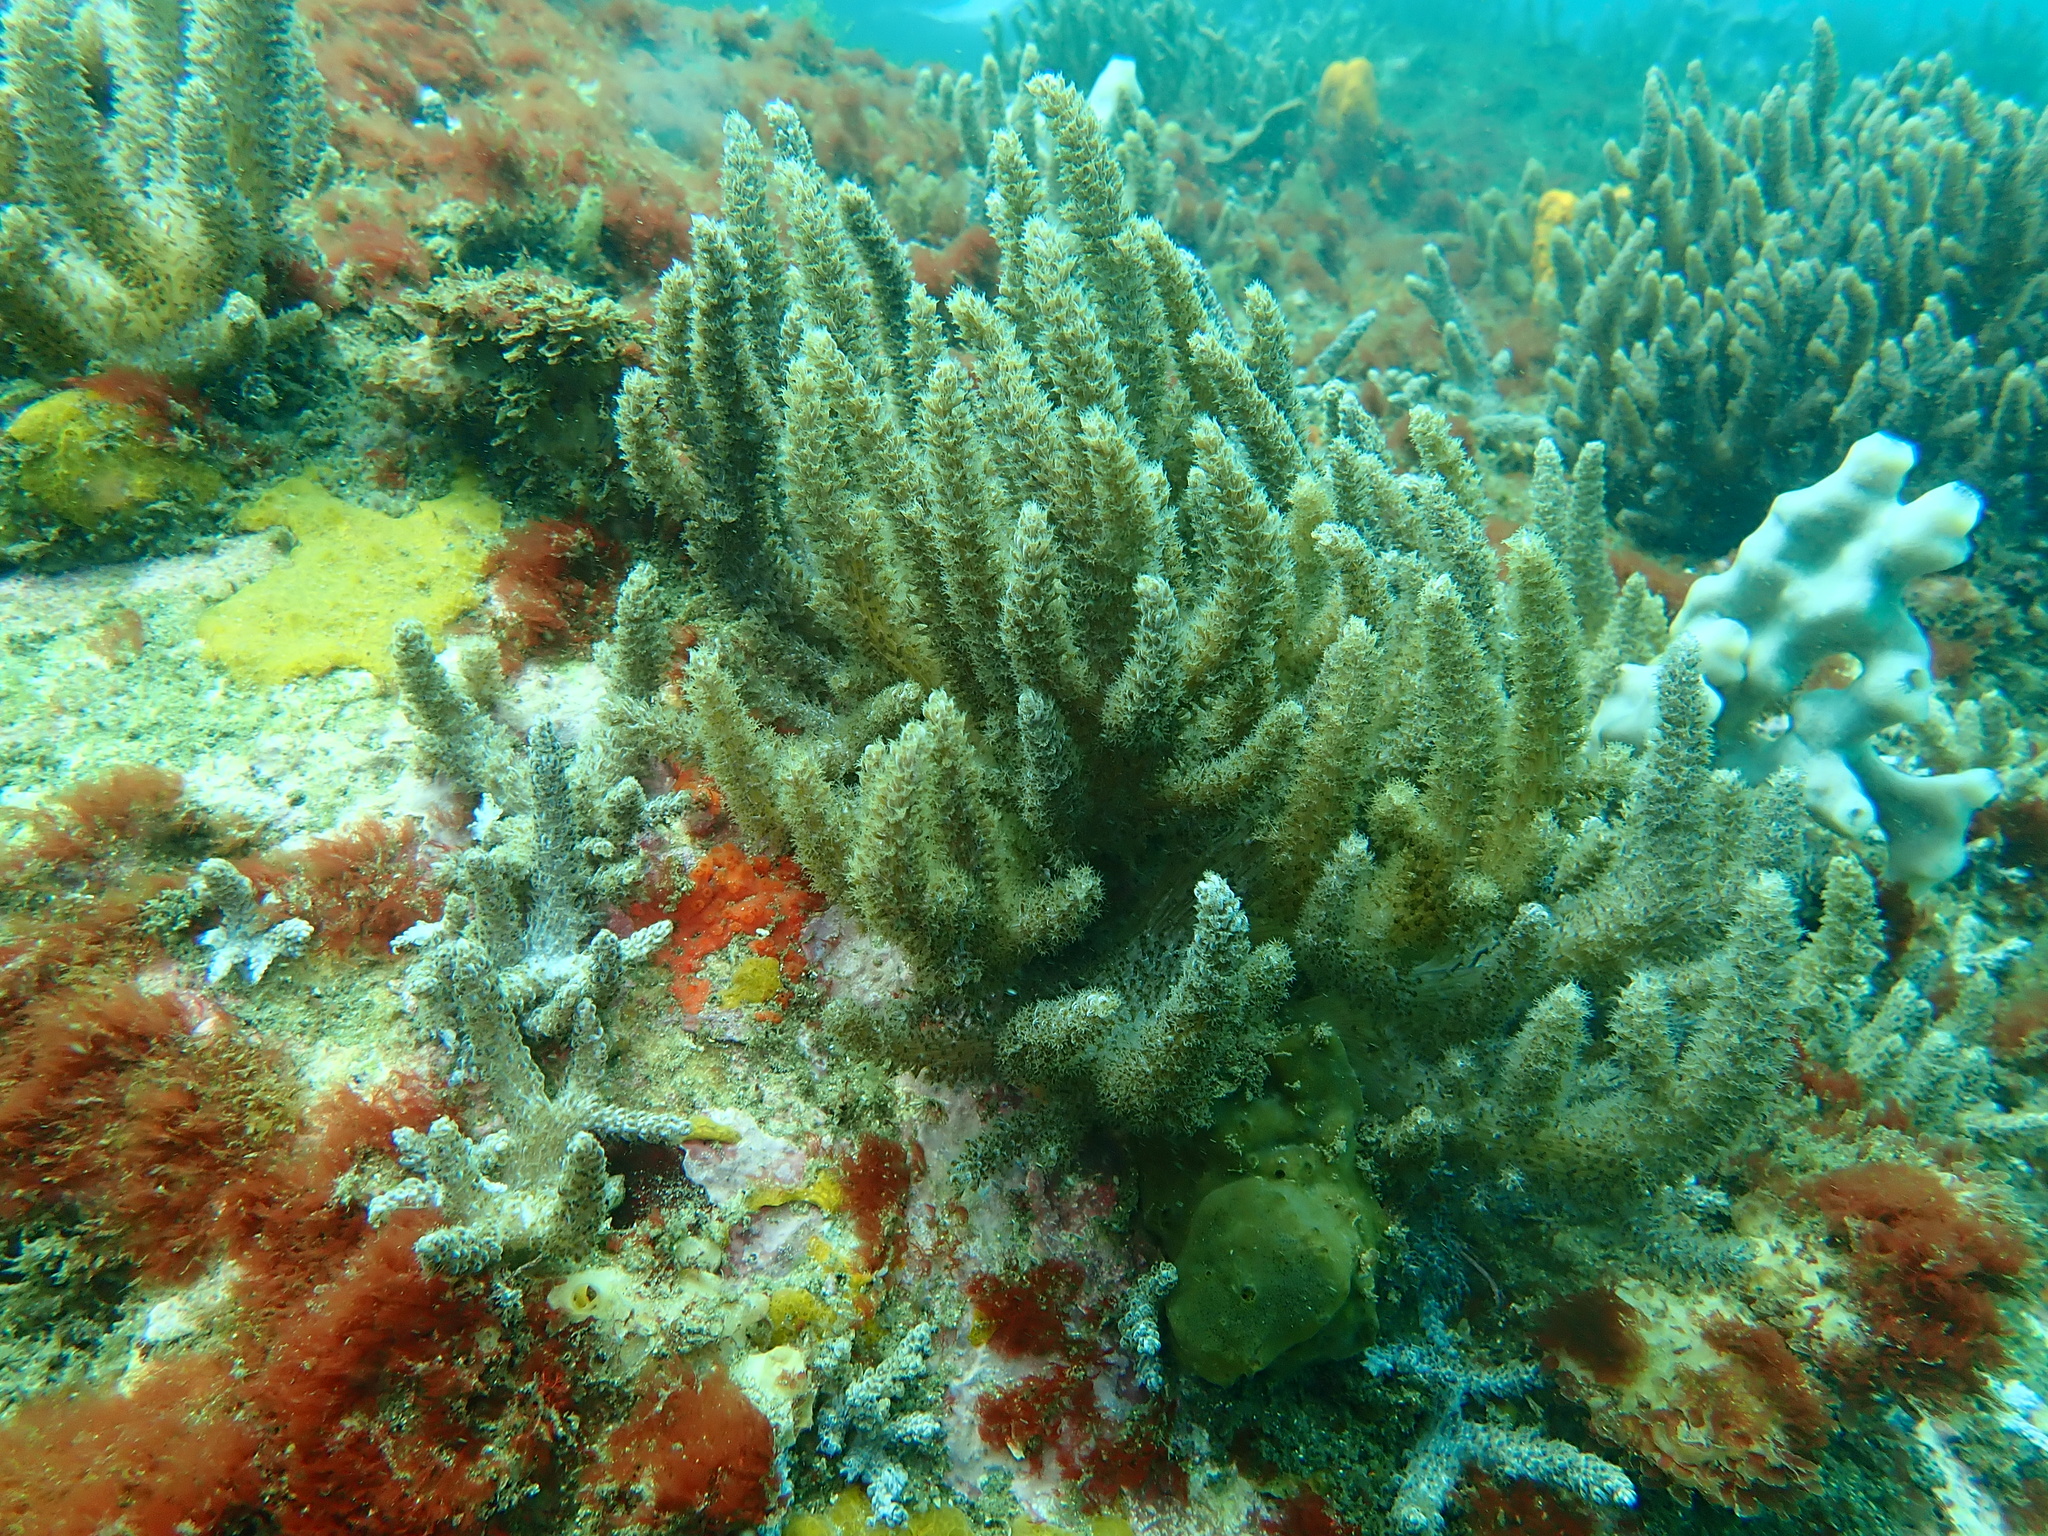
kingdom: Animalia
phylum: Cnidaria
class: Anthozoa
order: Malacalcyonacea
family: Capnellidae
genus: Capnella
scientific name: Capnella gaboensis
